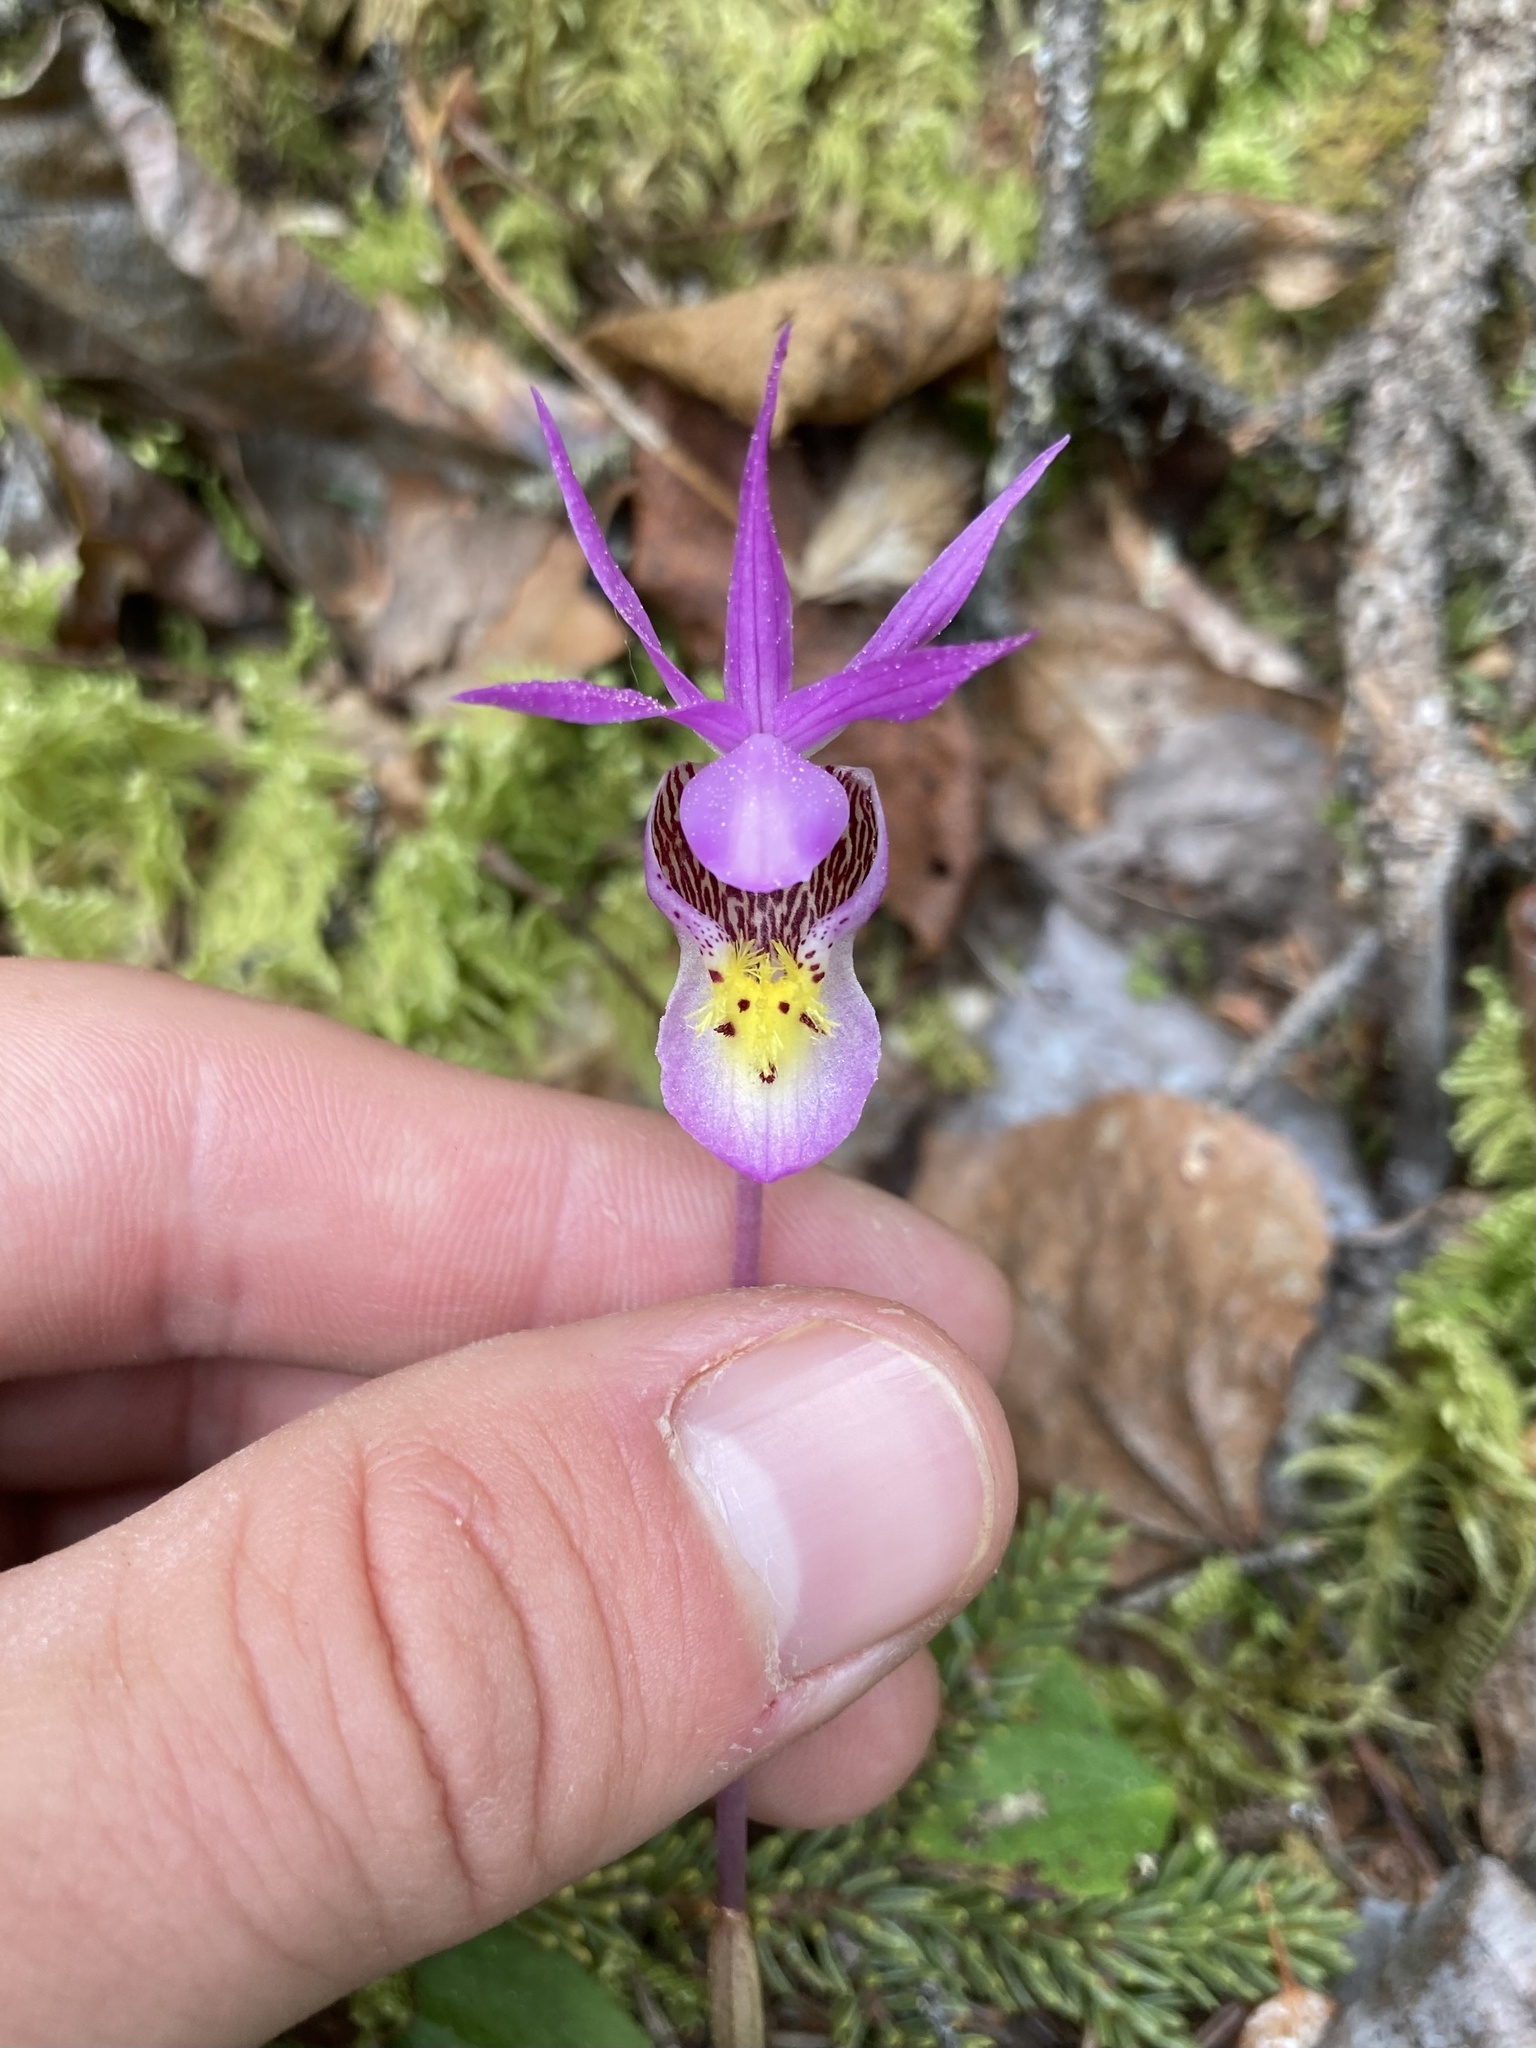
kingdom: Plantae
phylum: Tracheophyta
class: Liliopsida
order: Asparagales
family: Orchidaceae
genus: Calypso
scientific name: Calypso bulbosa
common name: Calypso
